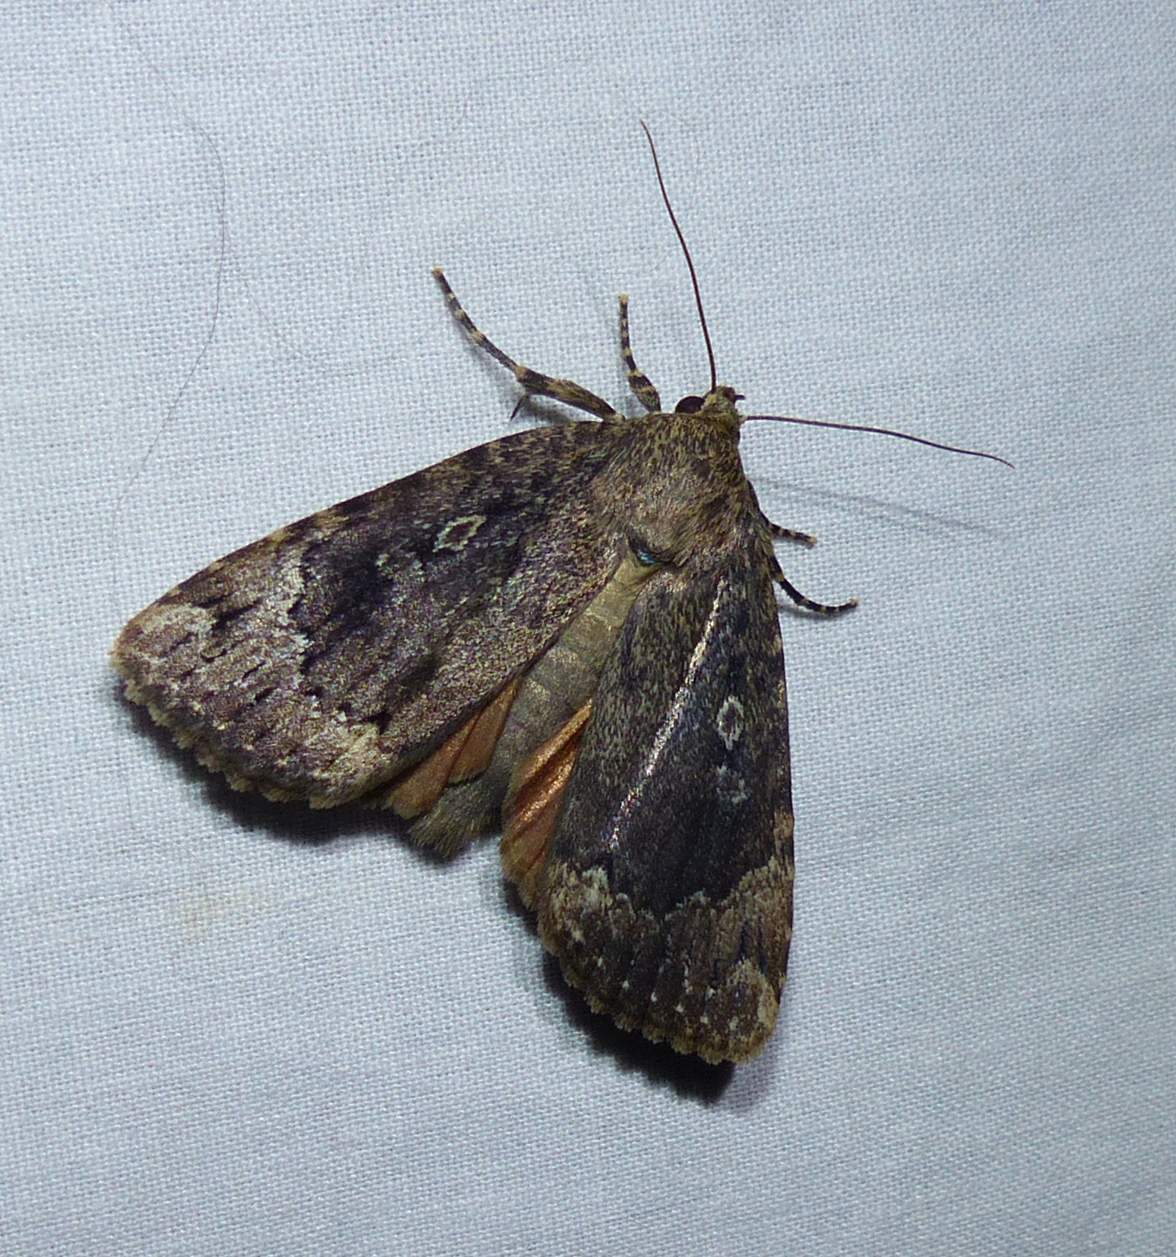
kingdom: Animalia
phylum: Arthropoda
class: Insecta
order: Lepidoptera
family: Noctuidae
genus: Amphipyra
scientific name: Amphipyra pyramidoides
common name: American copper underwing
